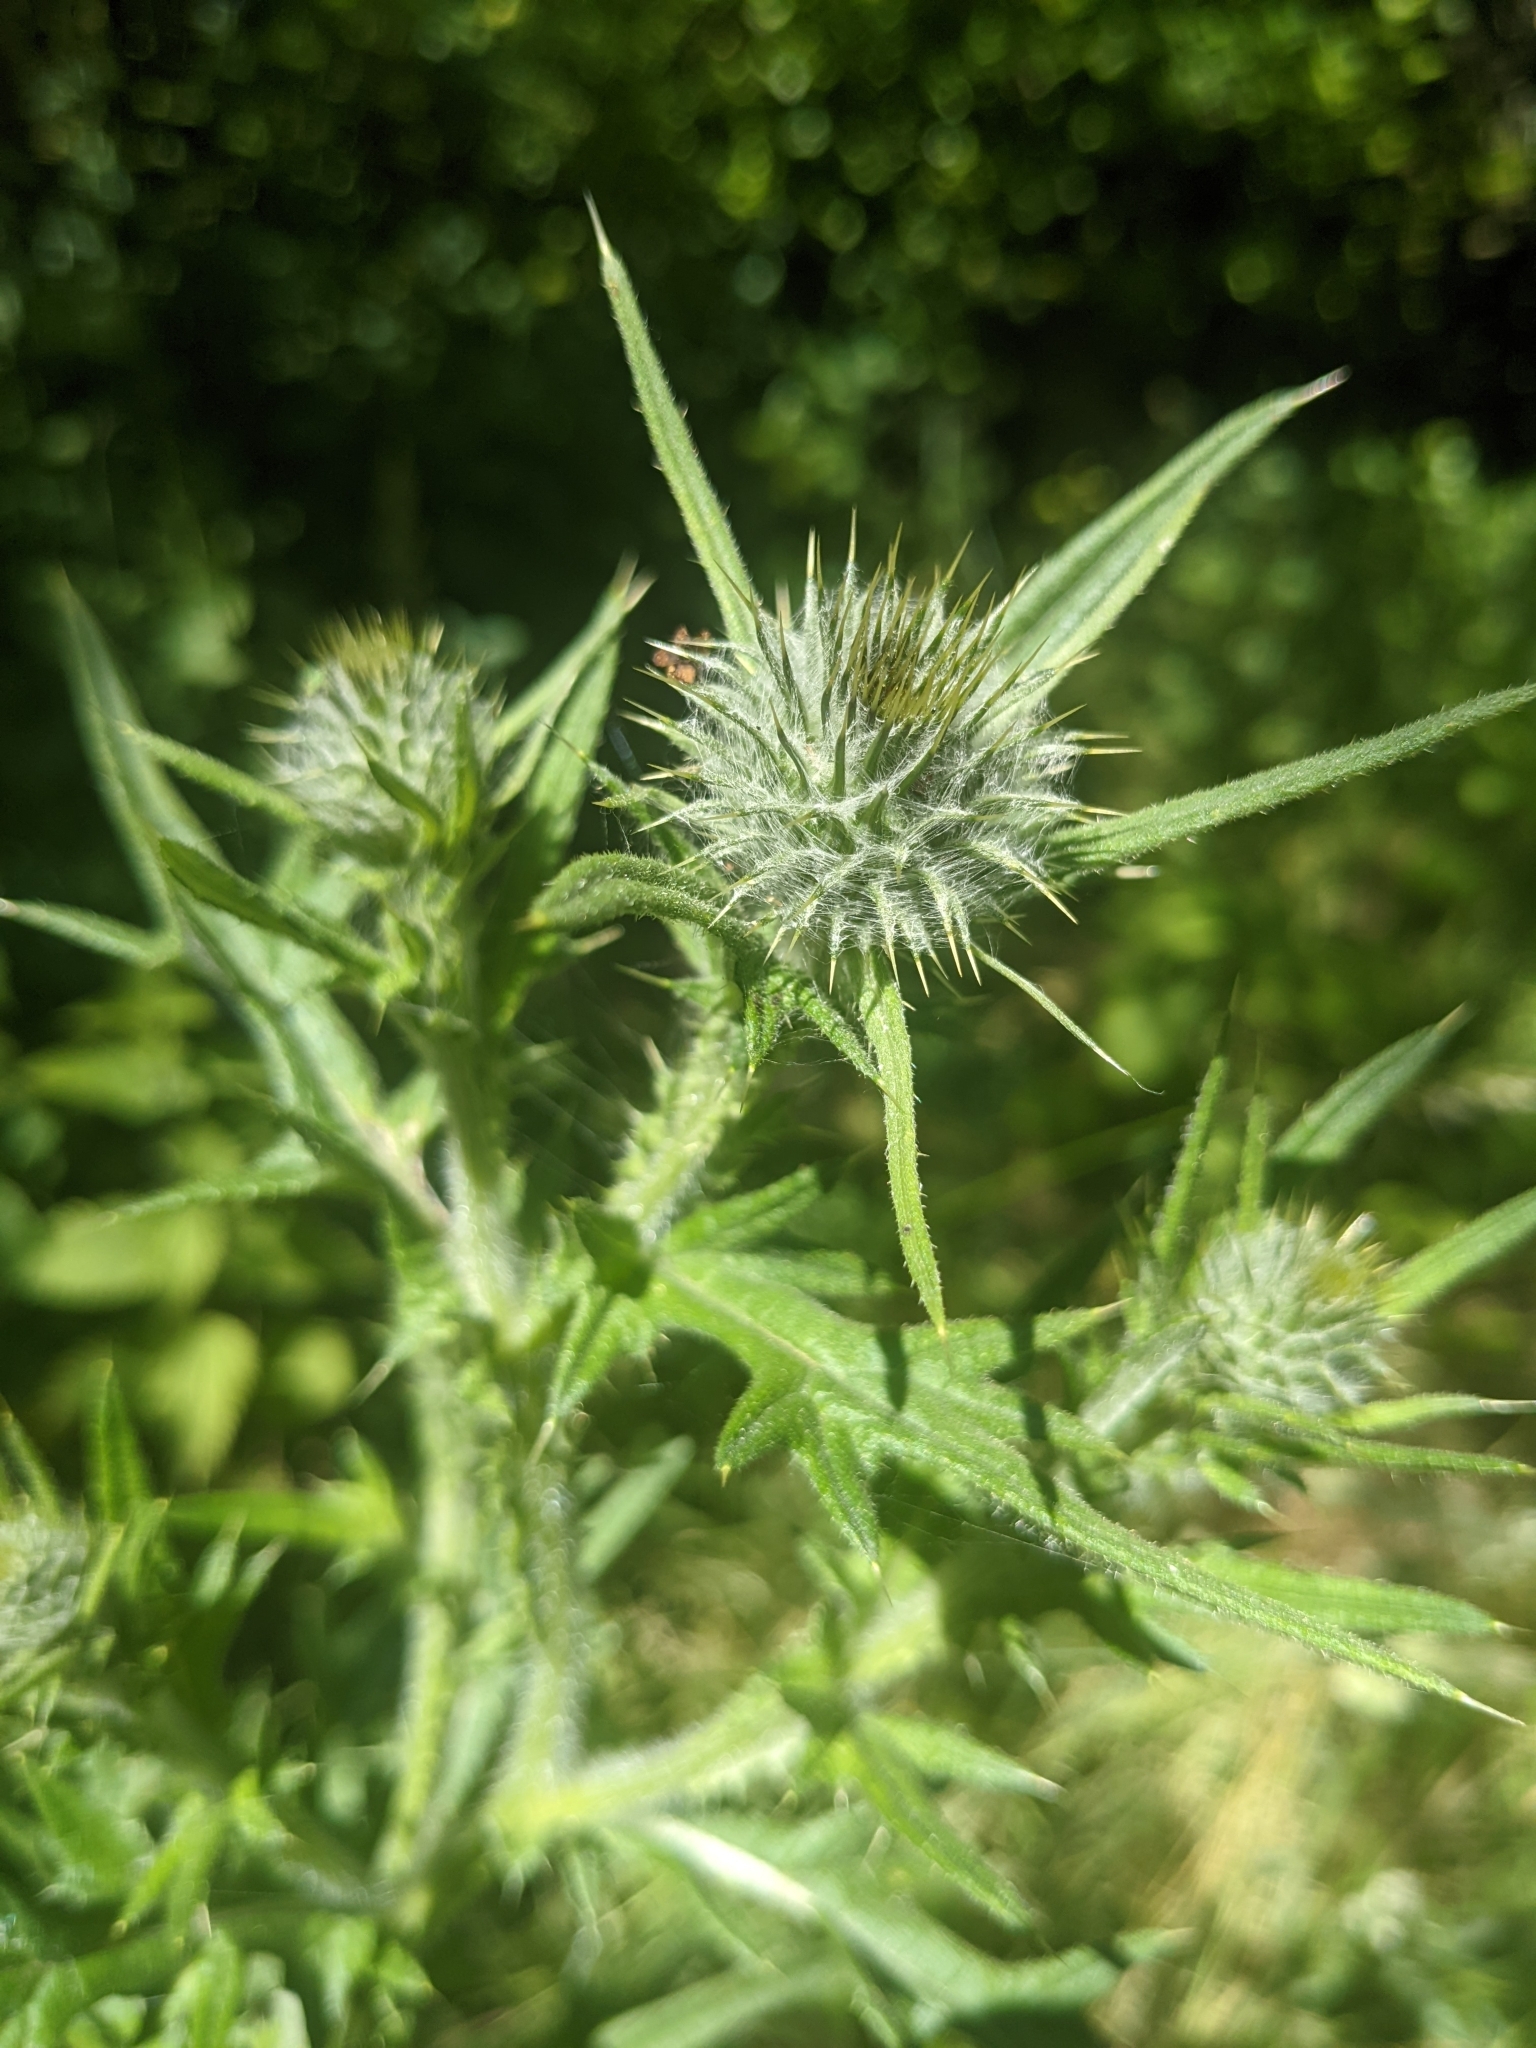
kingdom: Plantae
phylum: Tracheophyta
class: Magnoliopsida
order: Asterales
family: Asteraceae
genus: Cirsium
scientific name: Cirsium vulgare
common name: Bull thistle
